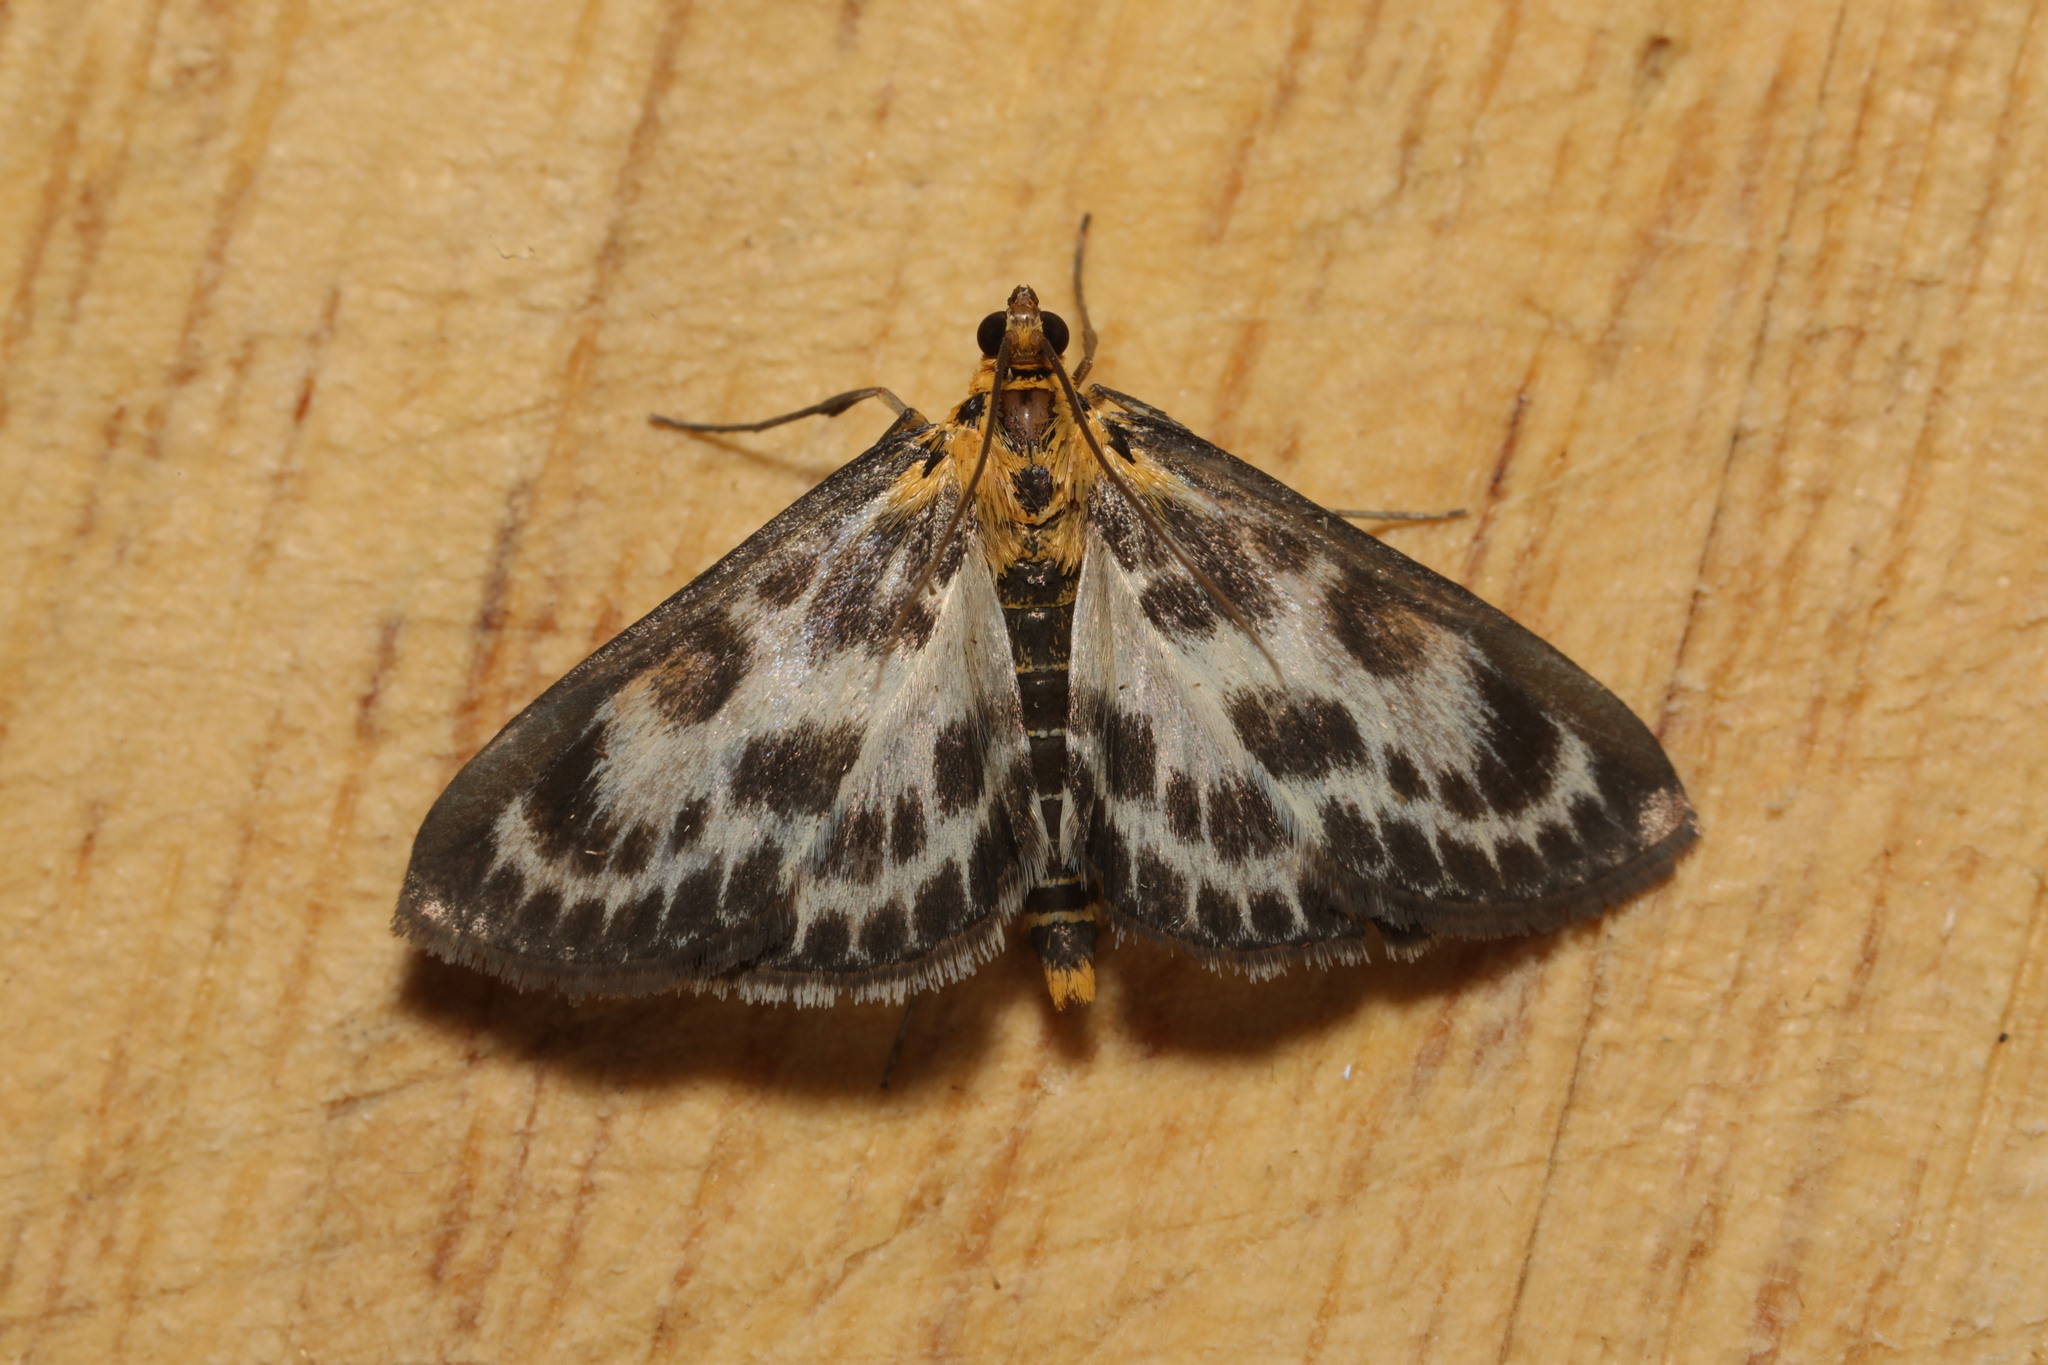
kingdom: Animalia
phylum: Arthropoda
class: Insecta
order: Lepidoptera
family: Crambidae
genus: Anania
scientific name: Anania hortulata
